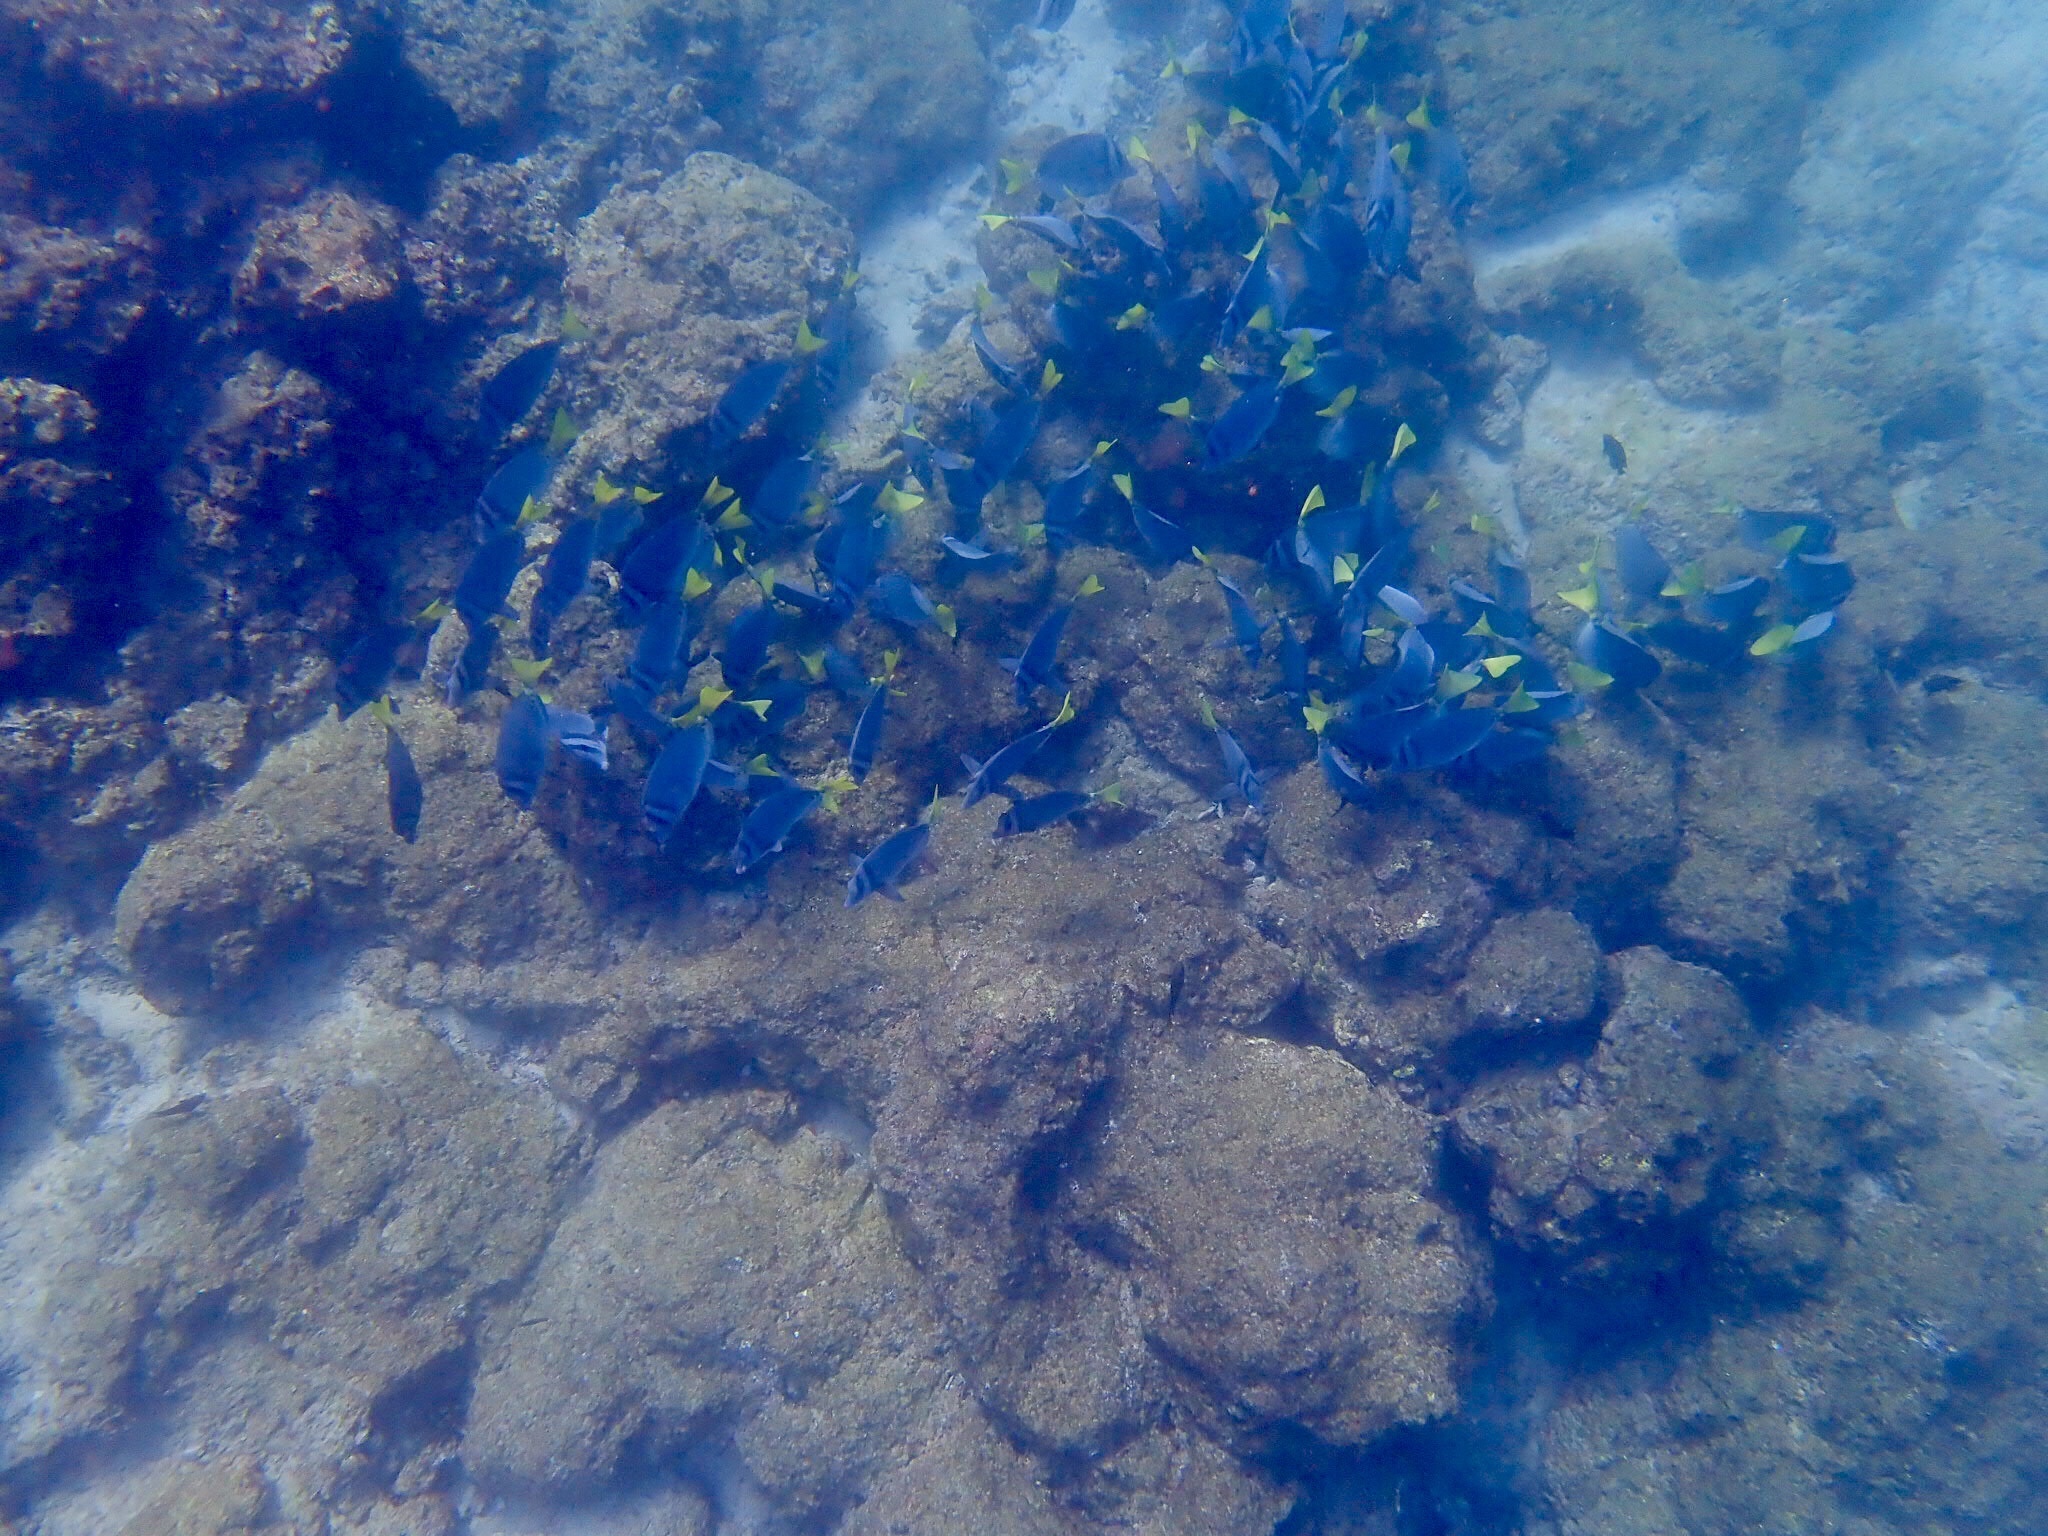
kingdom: Animalia
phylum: Chordata
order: Perciformes
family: Acanthuridae
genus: Prionurus
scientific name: Prionurus laticlavius
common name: Razor surgeonfish
